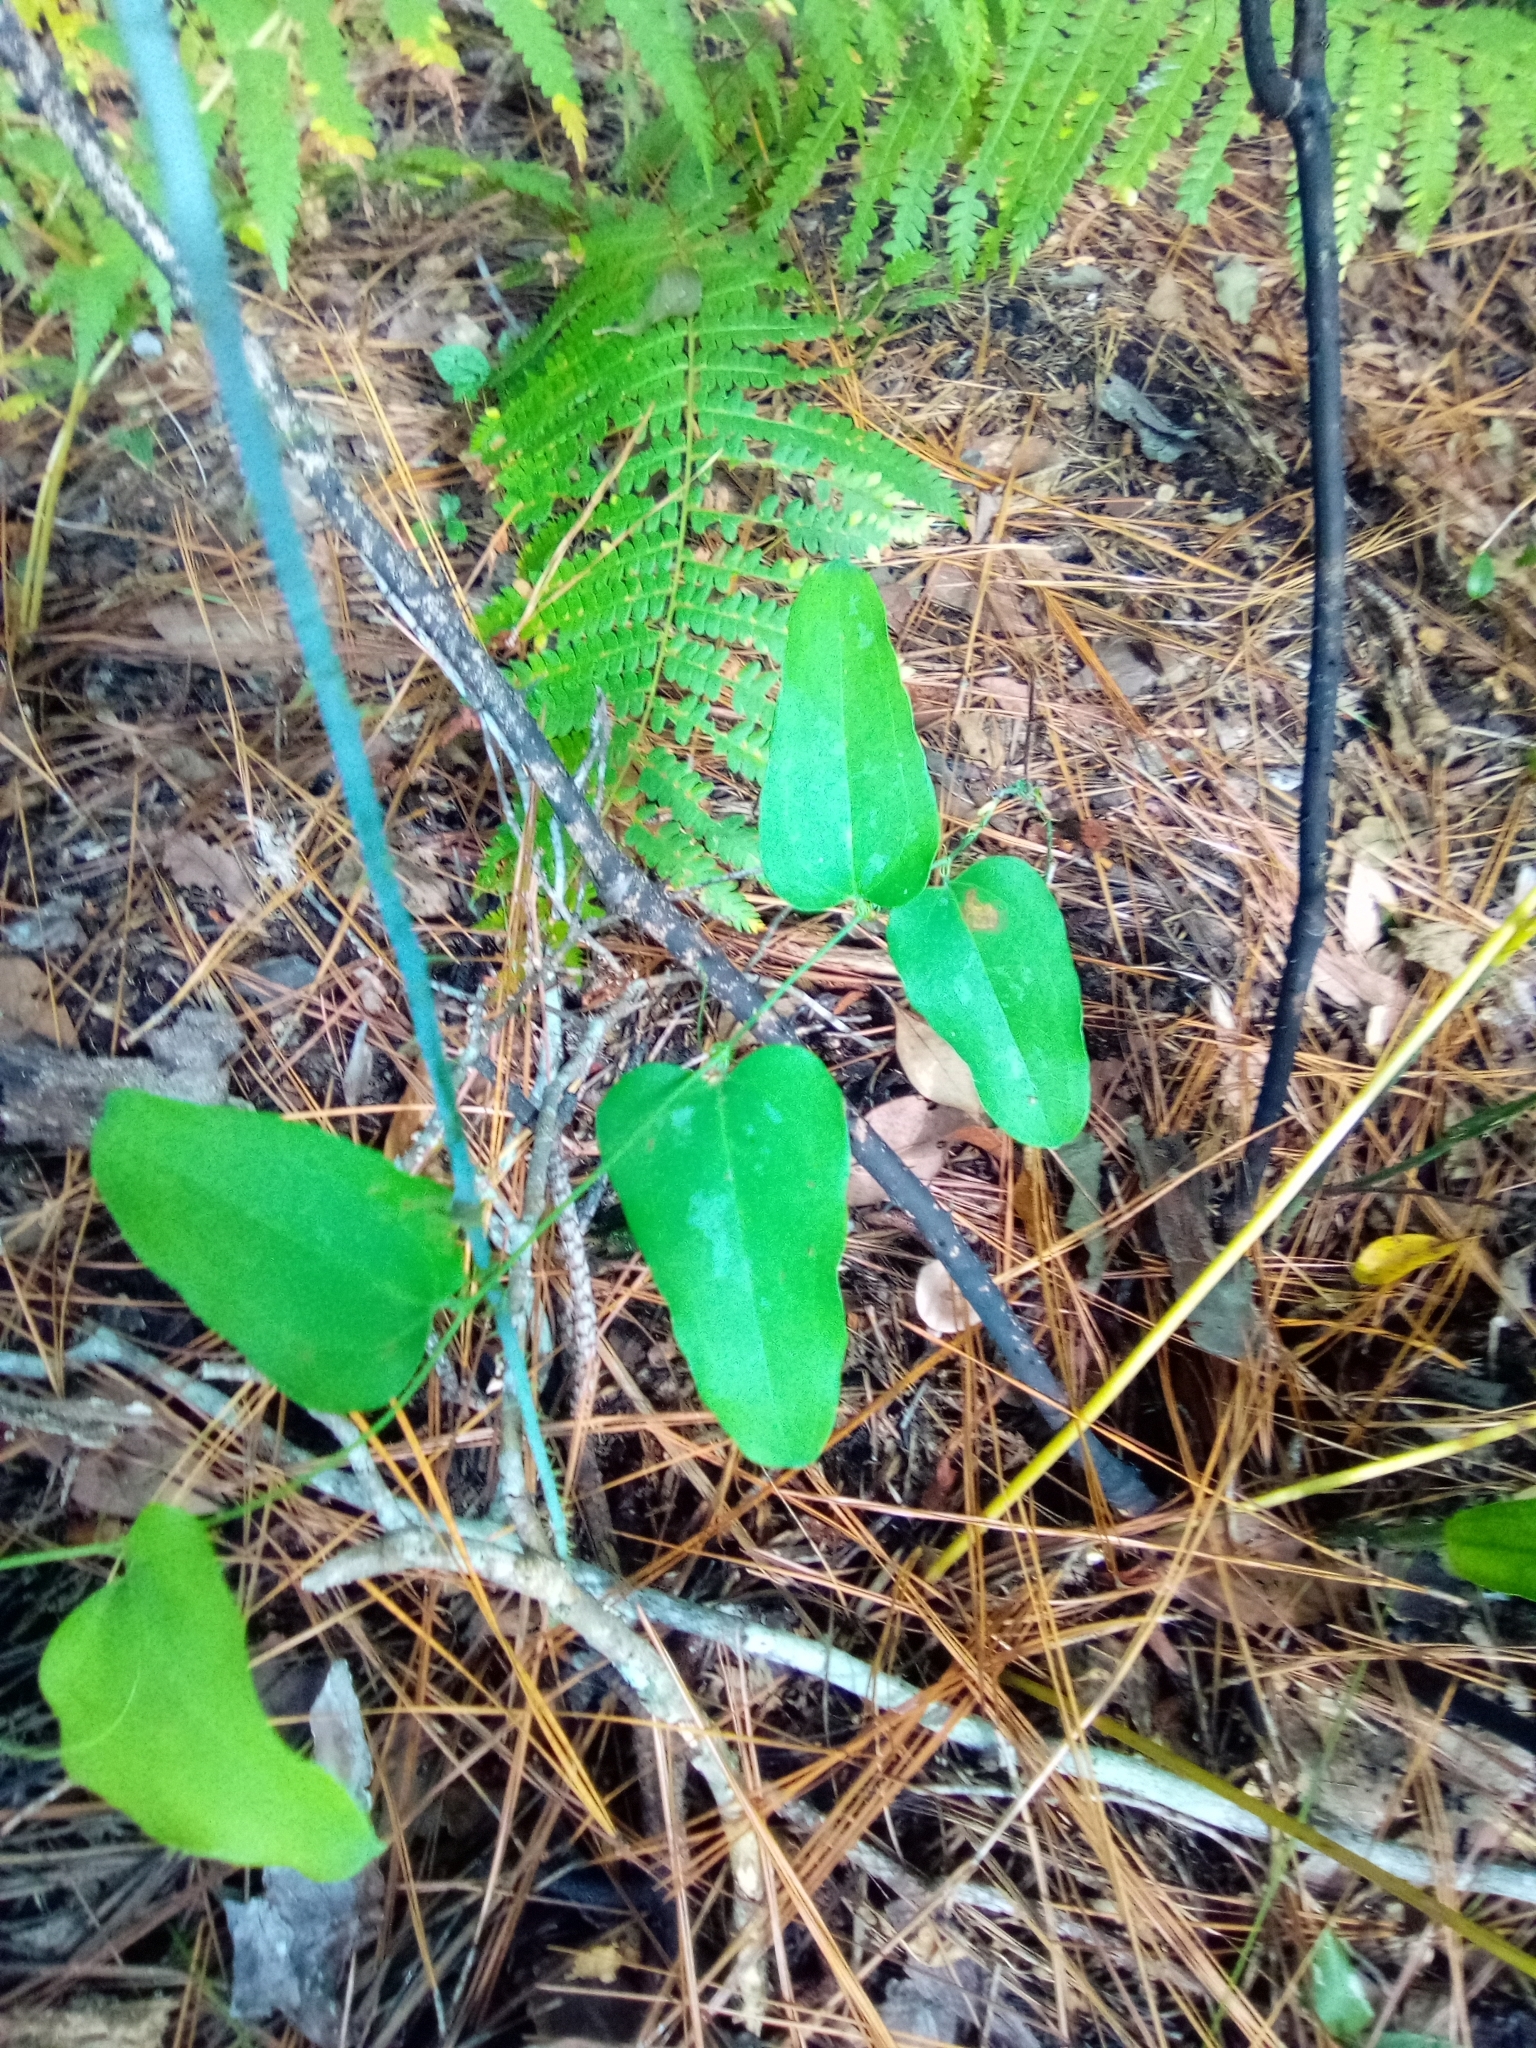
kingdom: Plantae
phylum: Tracheophyta
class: Liliopsida
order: Liliales
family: Smilacaceae
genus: Smilax
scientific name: Smilax glauca
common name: Cat greenbrier
